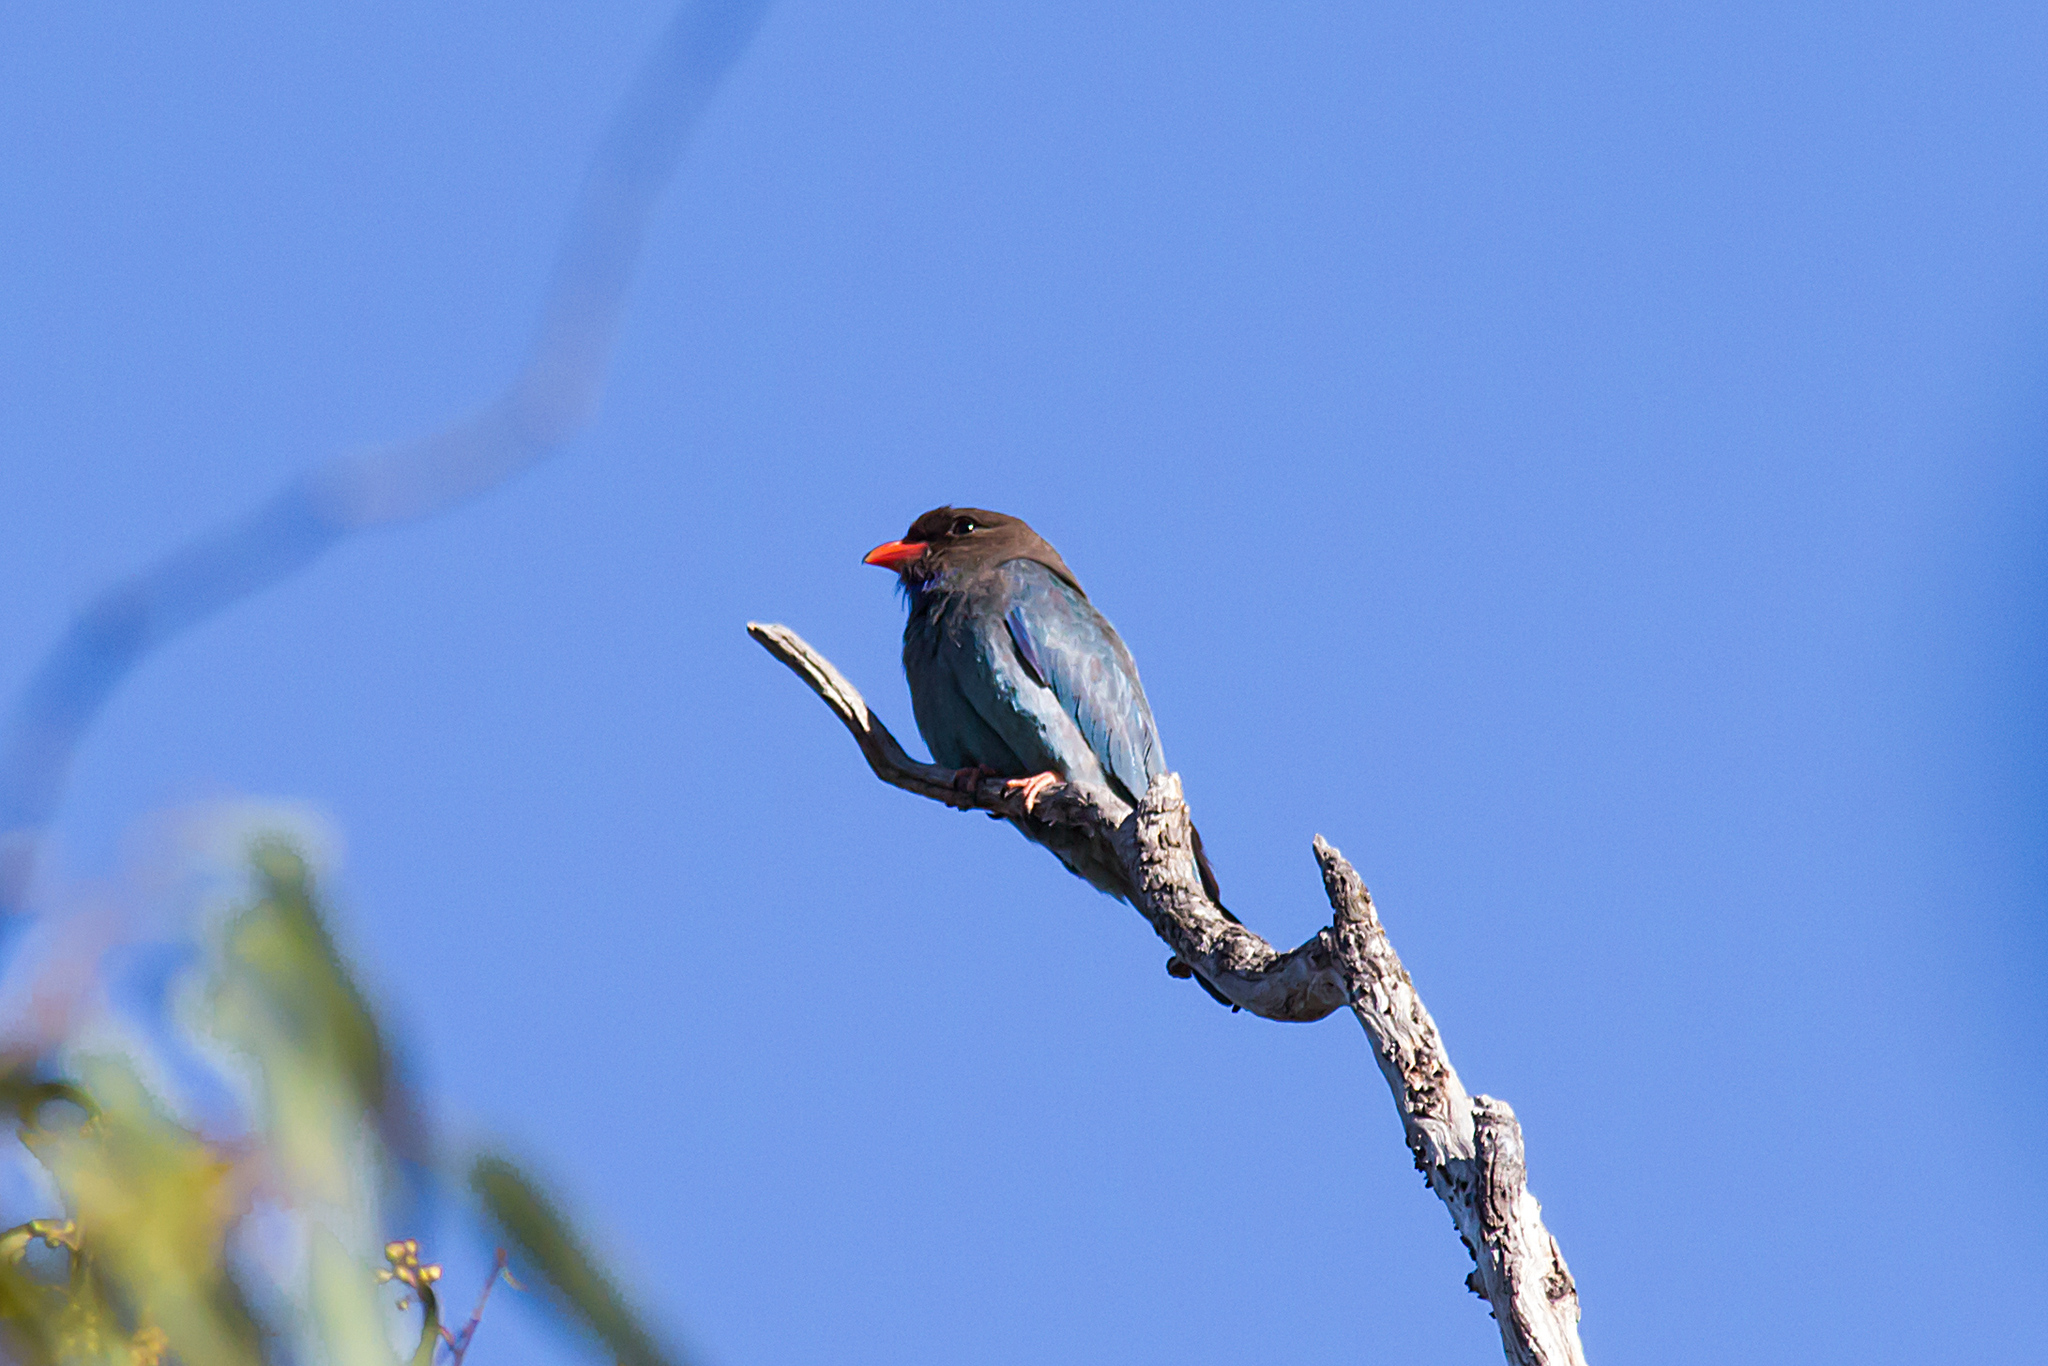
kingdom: Animalia
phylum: Chordata
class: Aves
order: Coraciiformes
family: Coraciidae
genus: Eurystomus
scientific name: Eurystomus orientalis
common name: Oriental dollarbird
